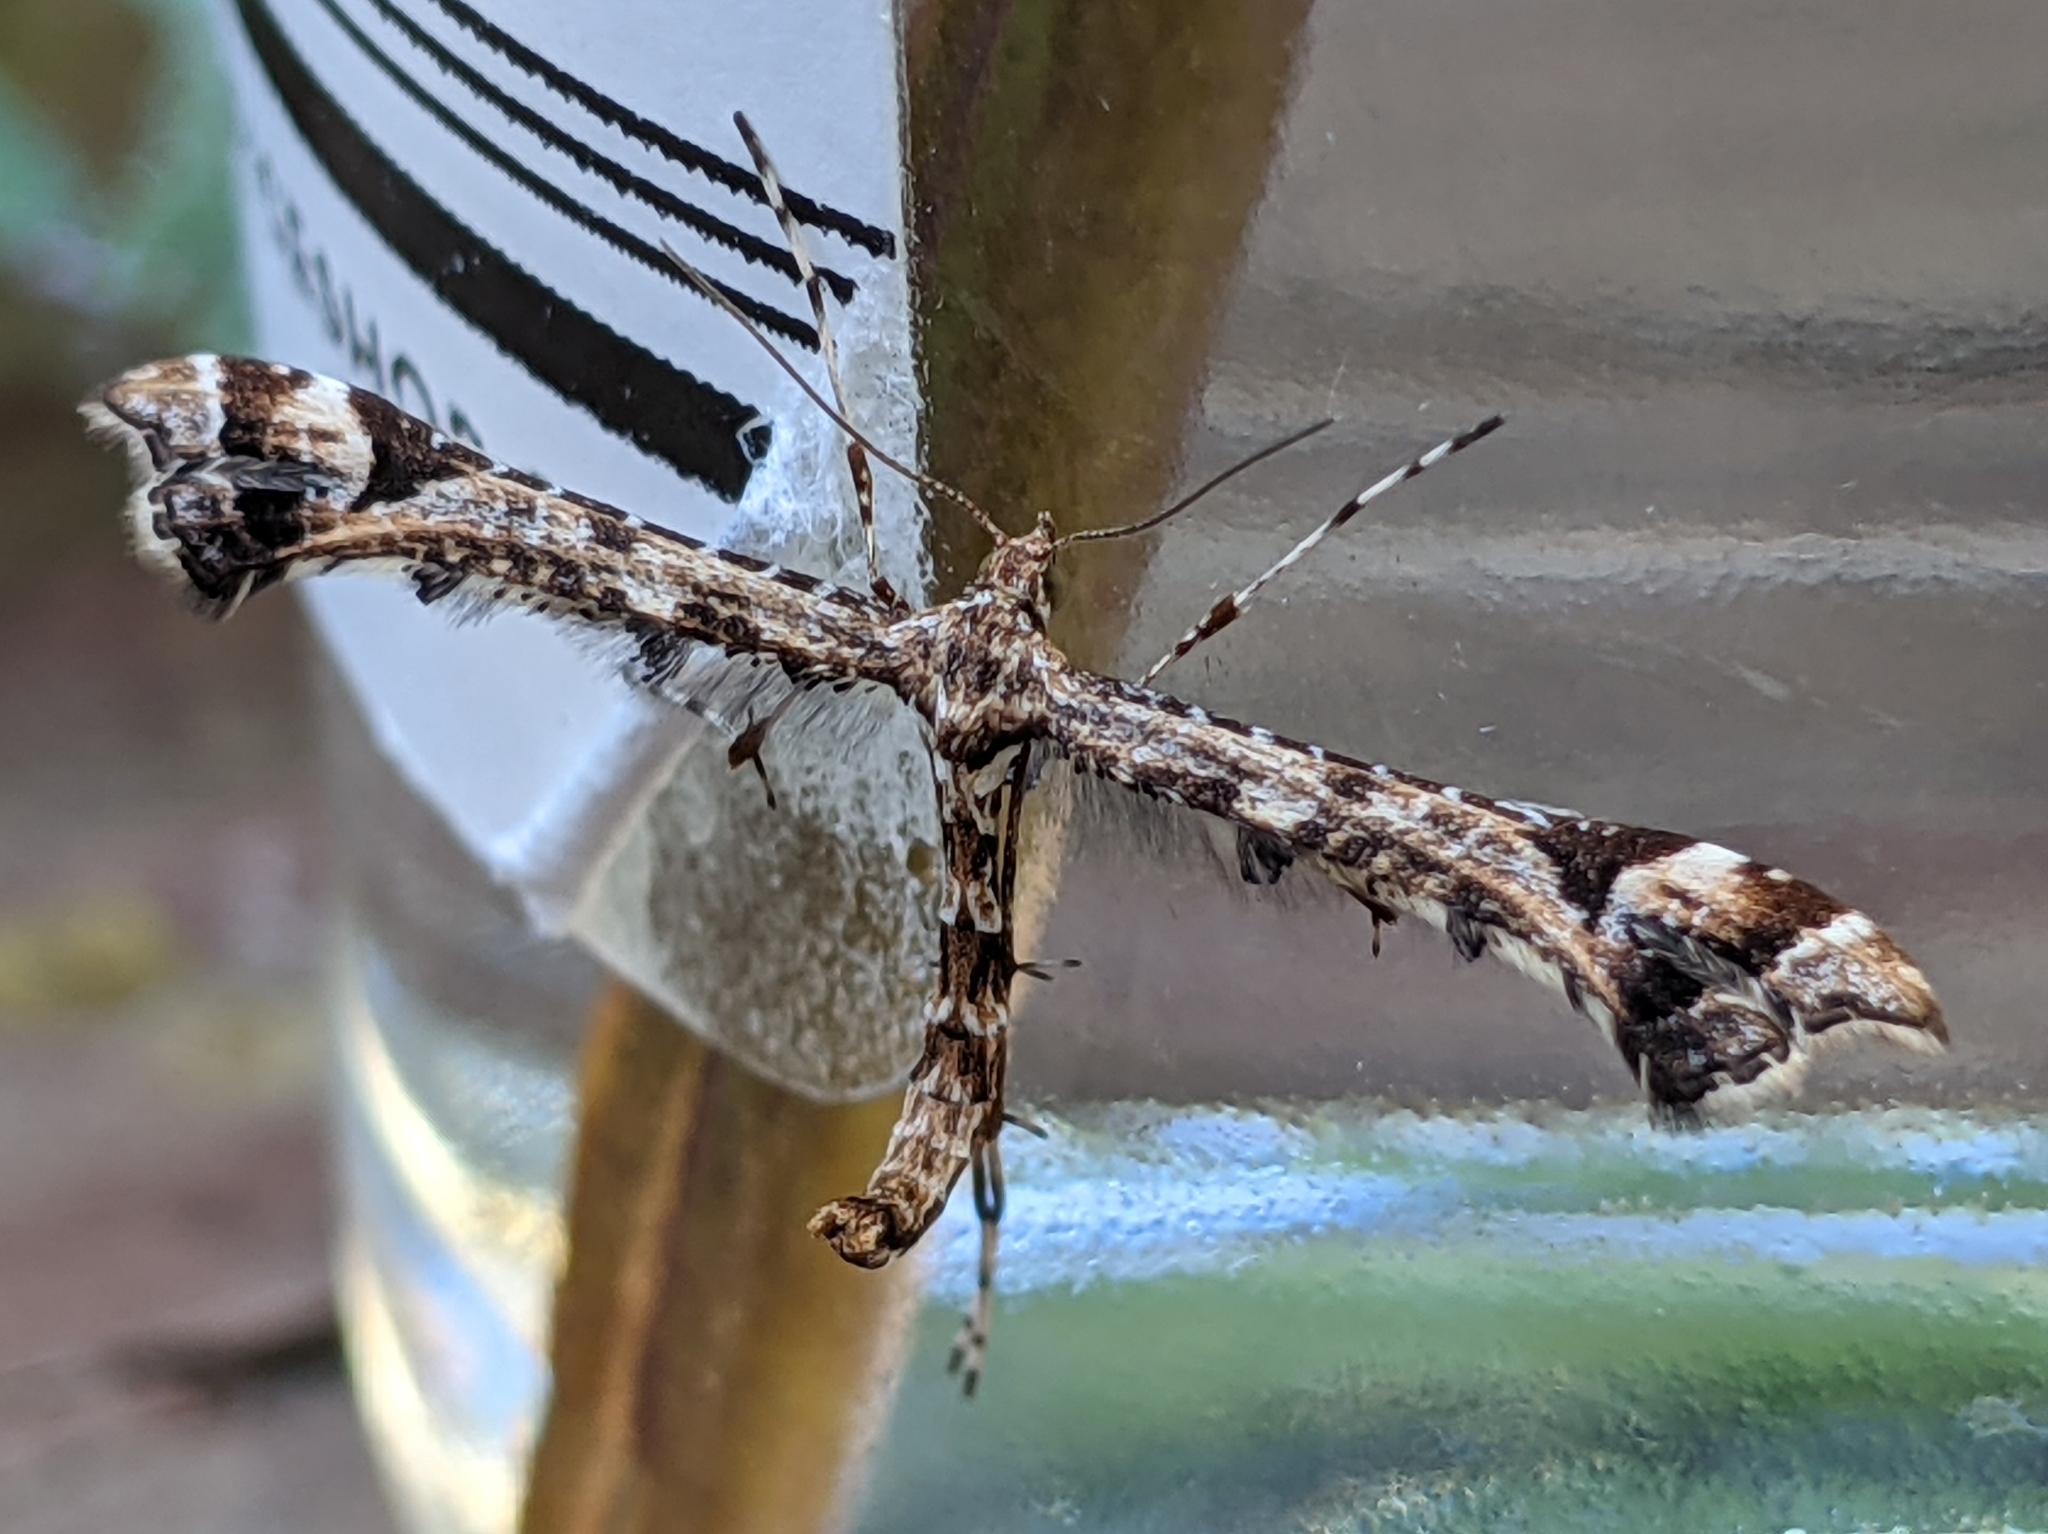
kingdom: Animalia
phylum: Arthropoda
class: Insecta
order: Lepidoptera
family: Pterophoridae
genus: Amblyptilia
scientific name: Amblyptilia pica
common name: Geranium plume moth
